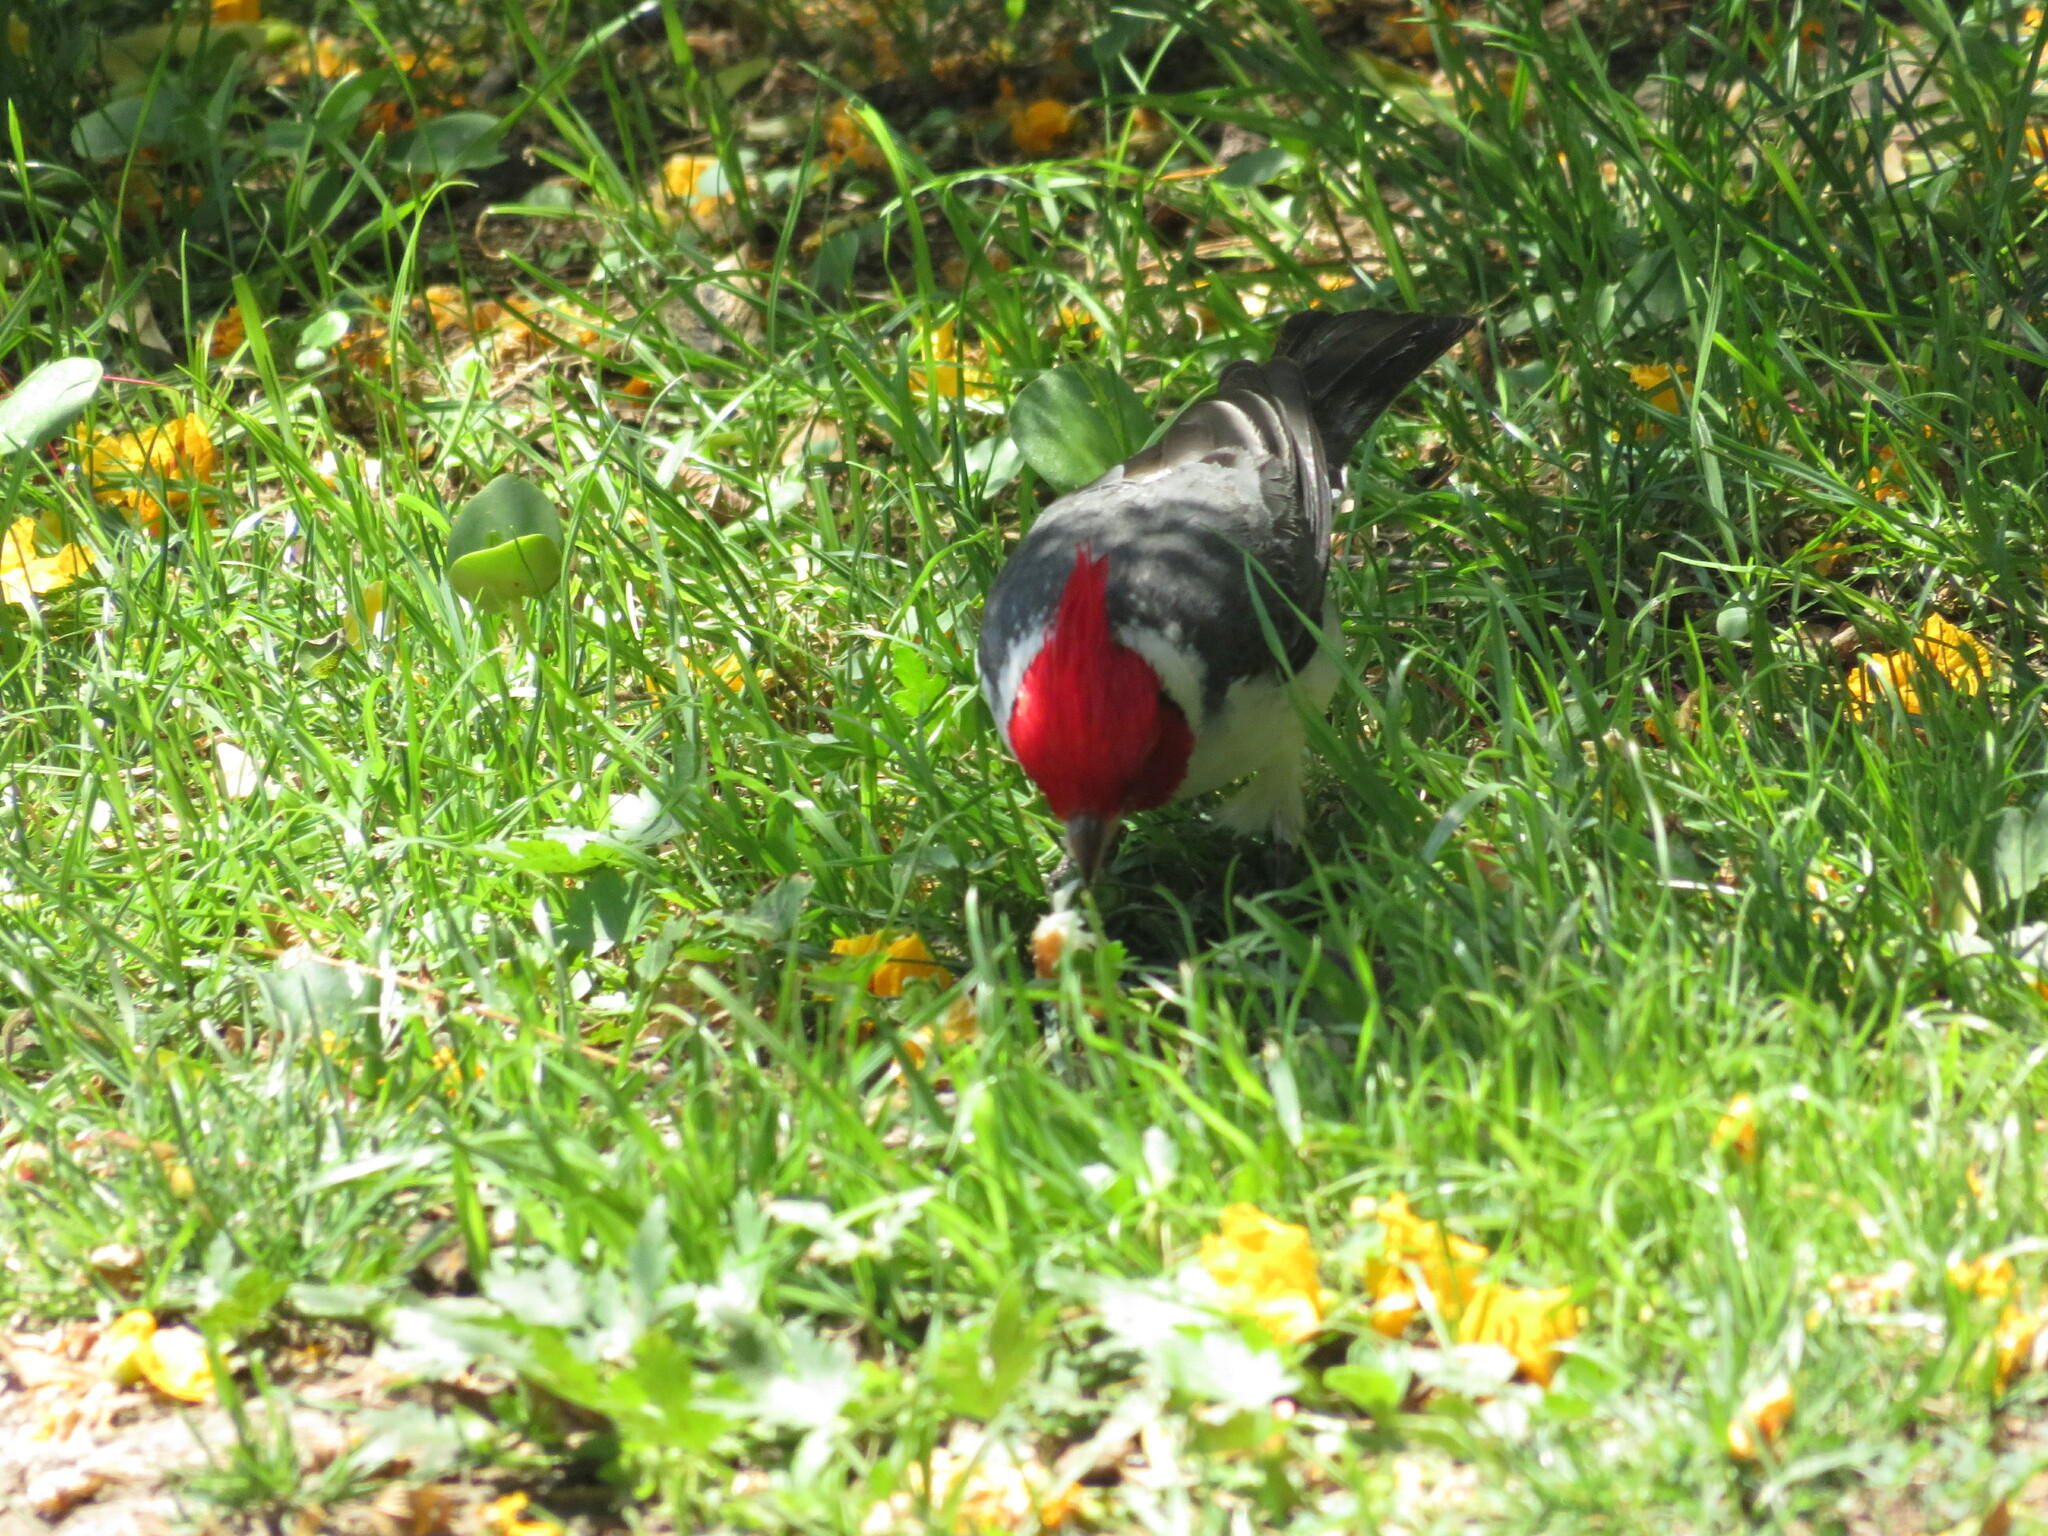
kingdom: Animalia
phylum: Chordata
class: Aves
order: Passeriformes
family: Thraupidae
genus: Paroaria
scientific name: Paroaria coronata
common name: Red-crested cardinal
